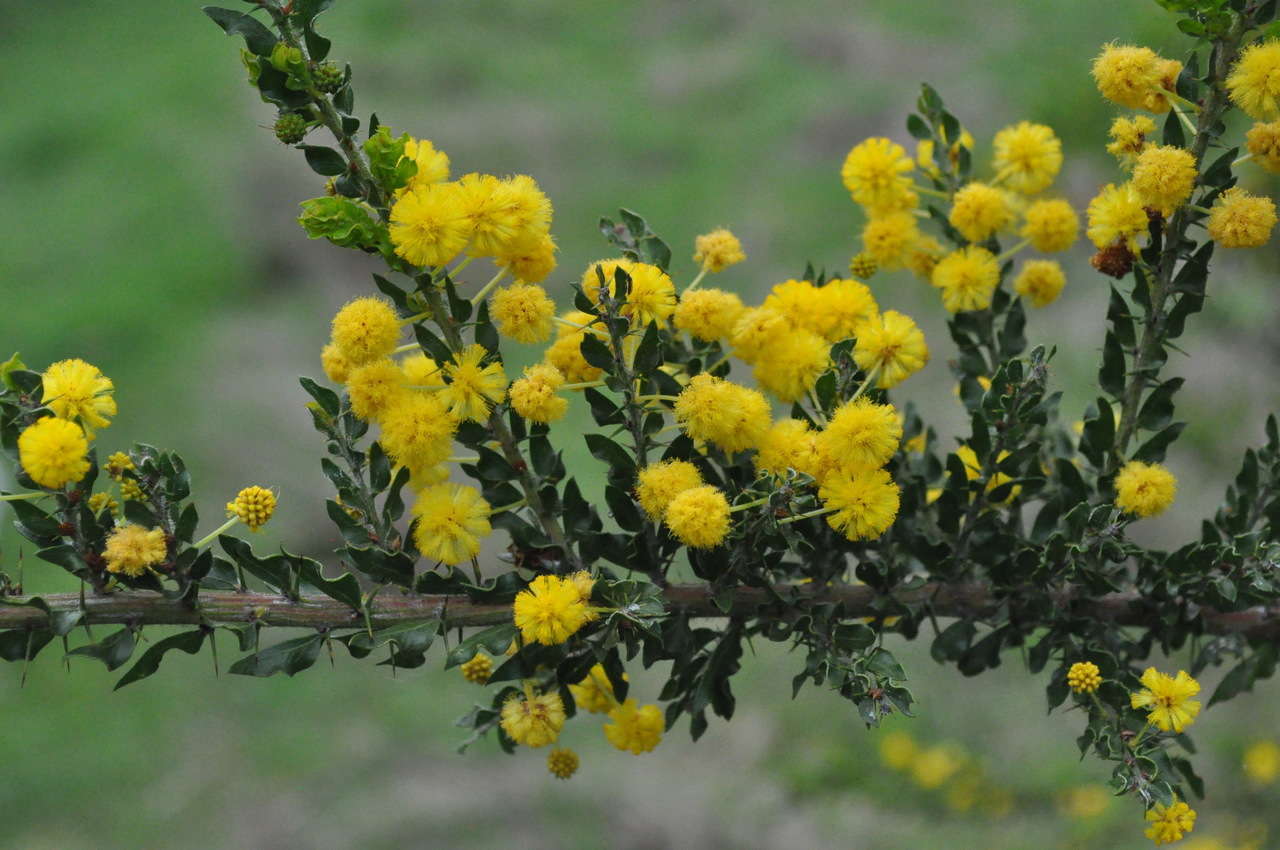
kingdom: Plantae
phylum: Tracheophyta
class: Magnoliopsida
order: Fabales
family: Fabaceae
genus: Acacia
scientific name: Acacia paradoxa
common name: Paradox acacia
